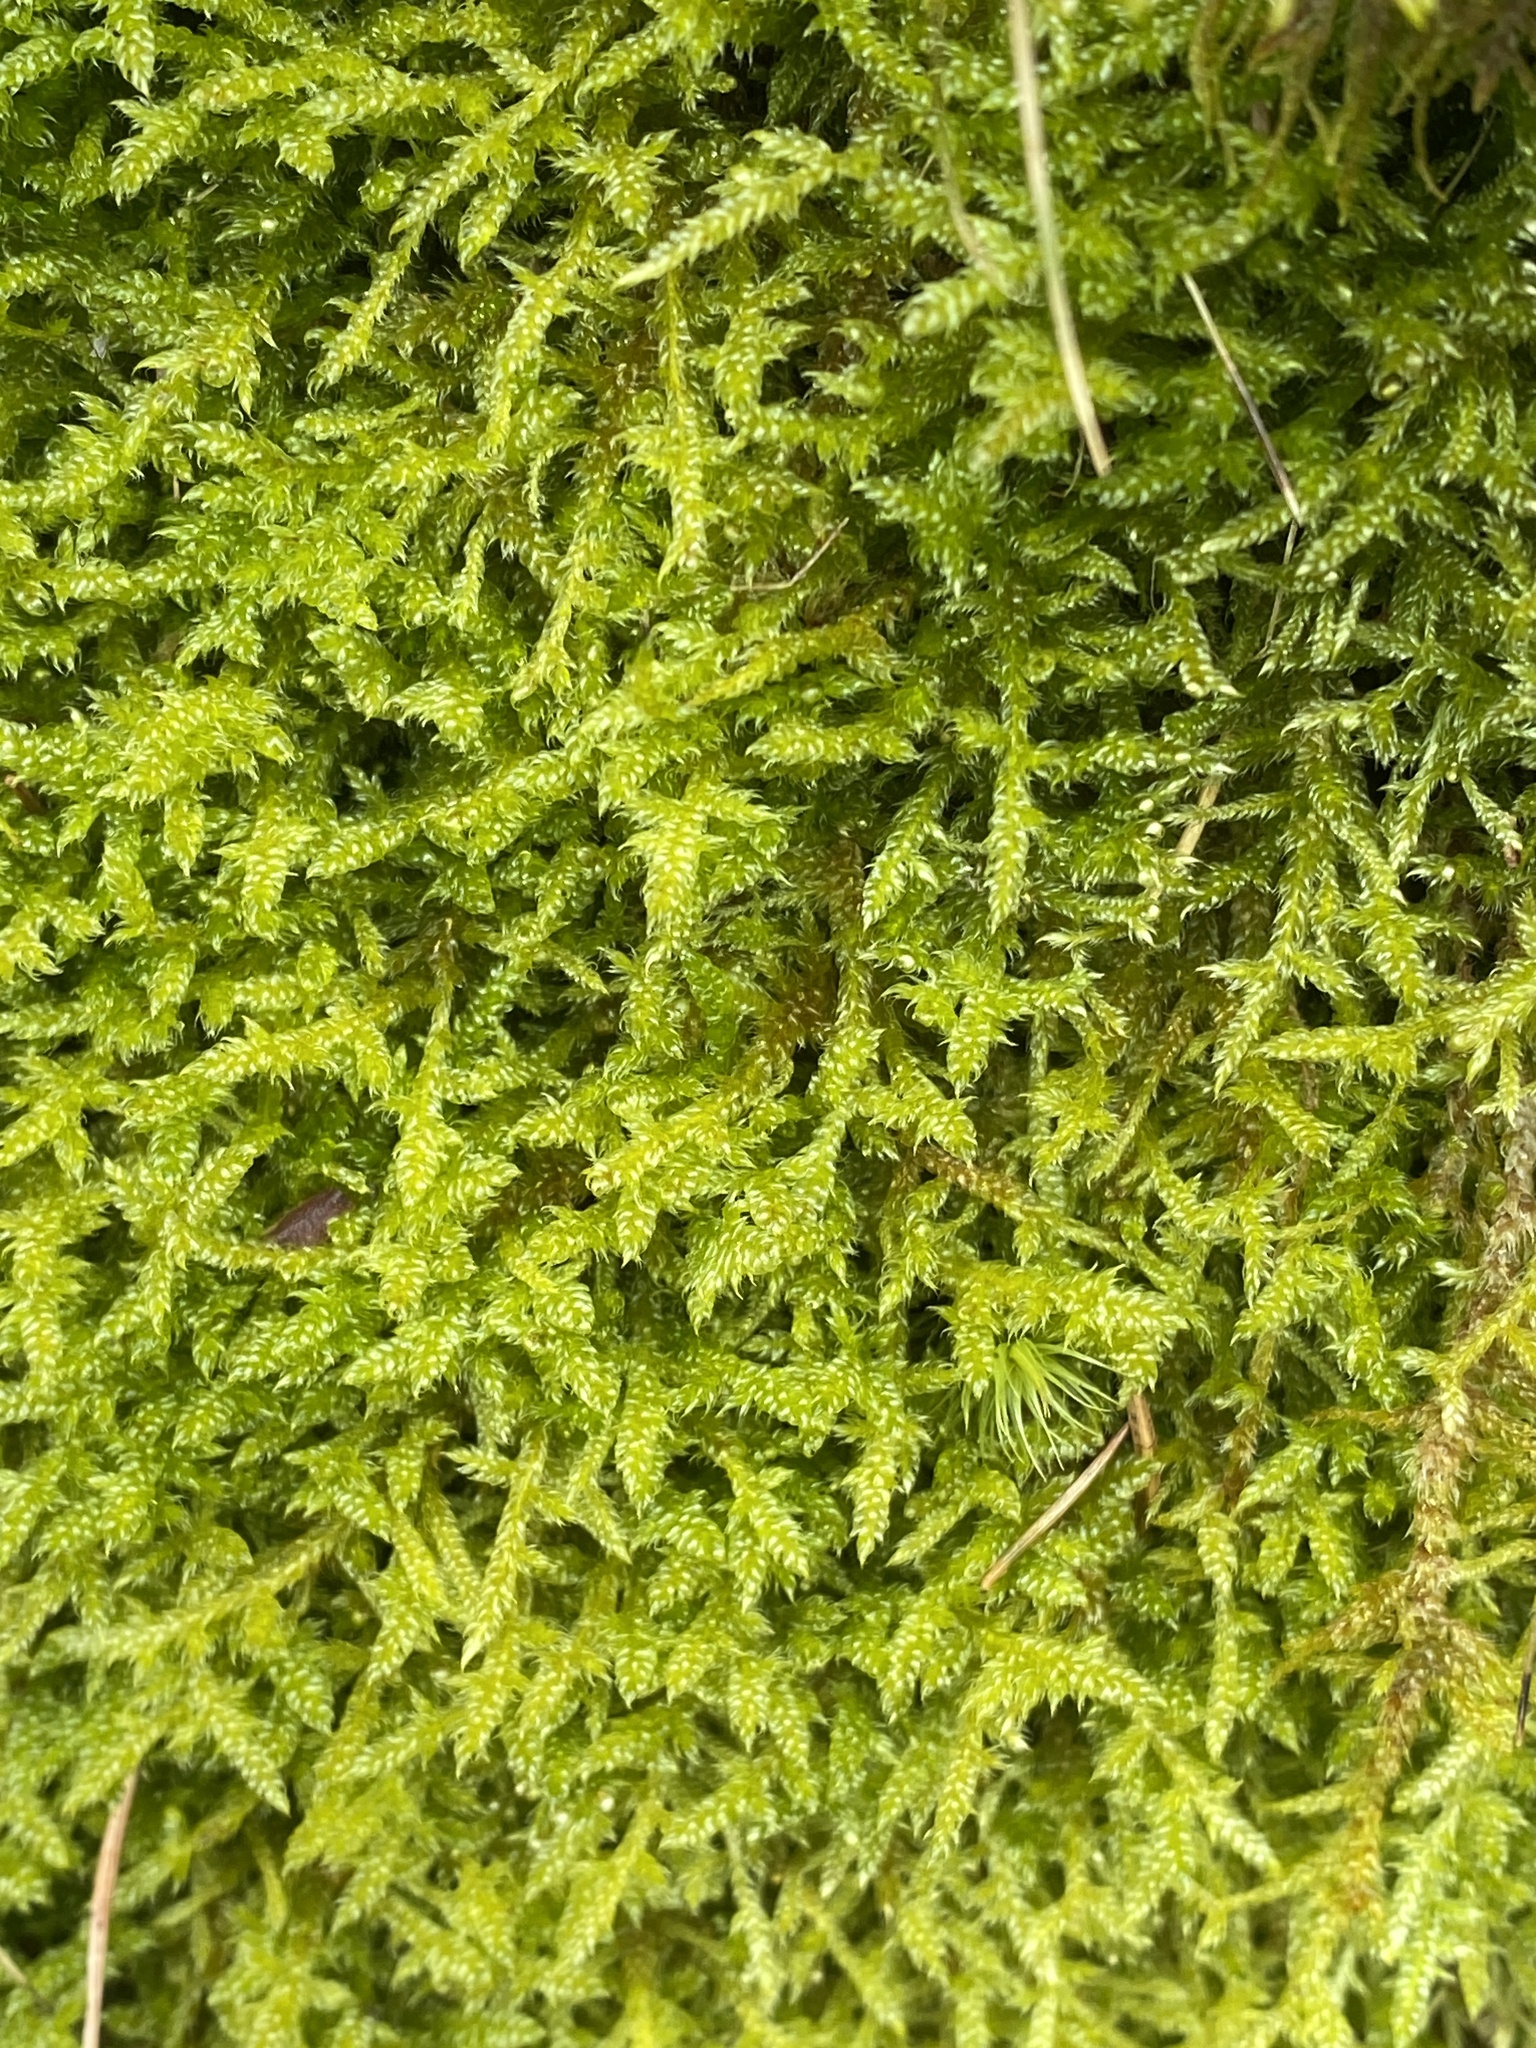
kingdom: Plantae
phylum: Bryophyta
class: Bryopsida
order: Hypnales
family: Hypnaceae
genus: Hypnum
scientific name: Hypnum cupressiforme
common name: Cypress-leaved plait-moss
